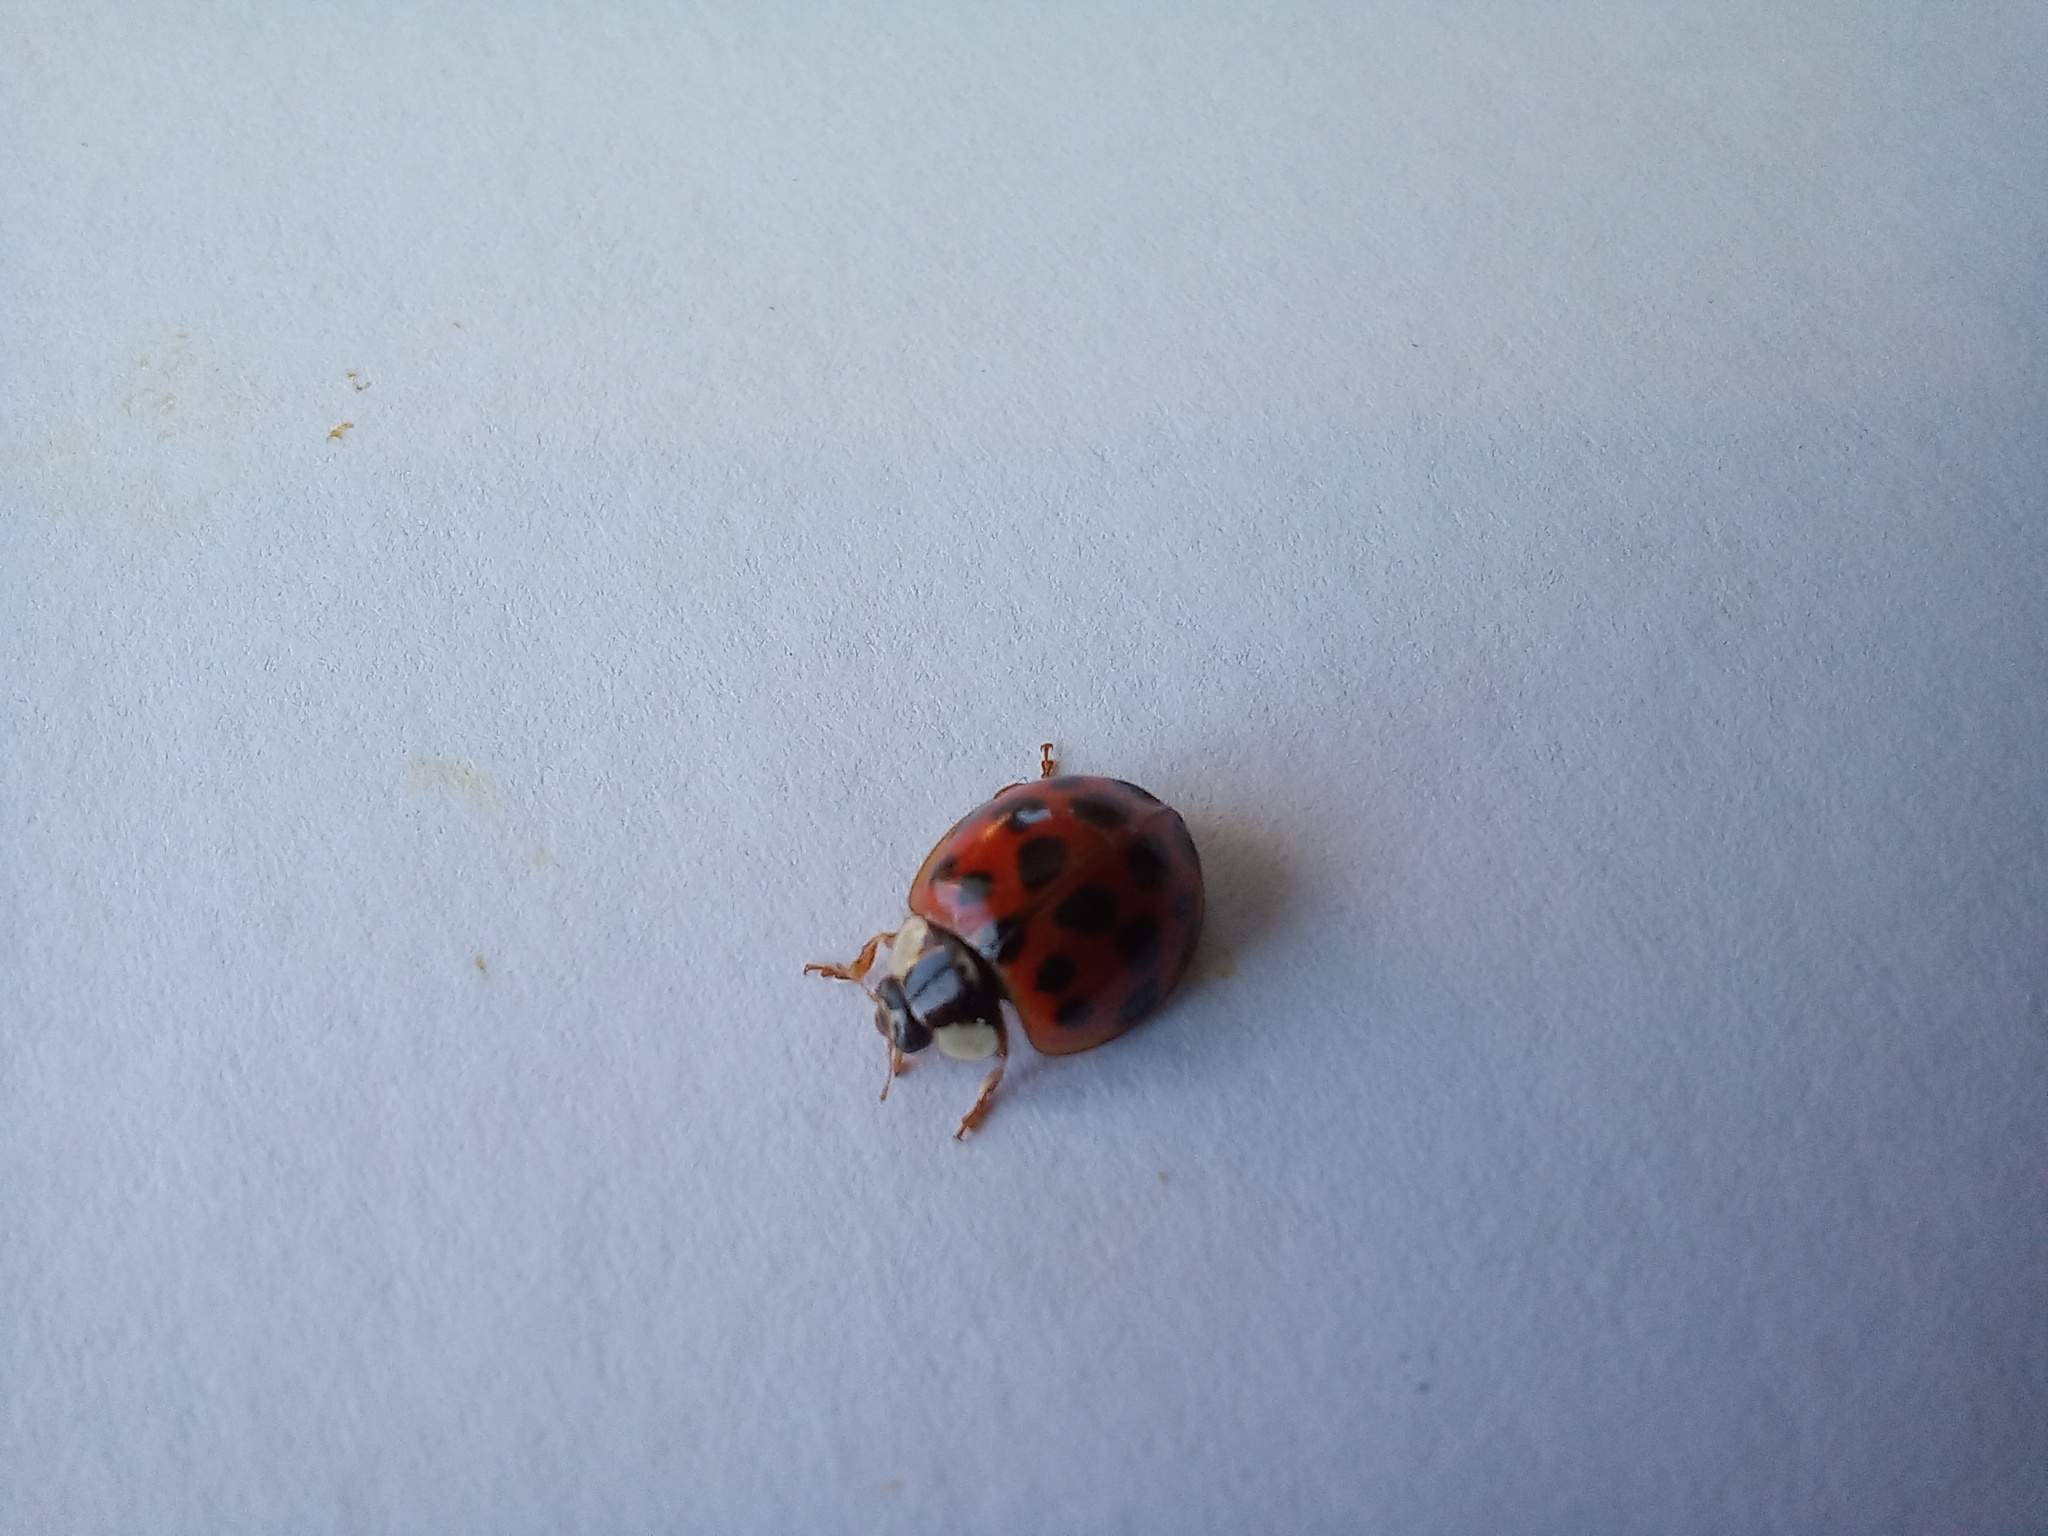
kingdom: Animalia
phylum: Arthropoda
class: Insecta
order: Coleoptera
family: Coccinellidae
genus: Harmonia
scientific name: Harmonia axyridis
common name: Harlequin ladybird
